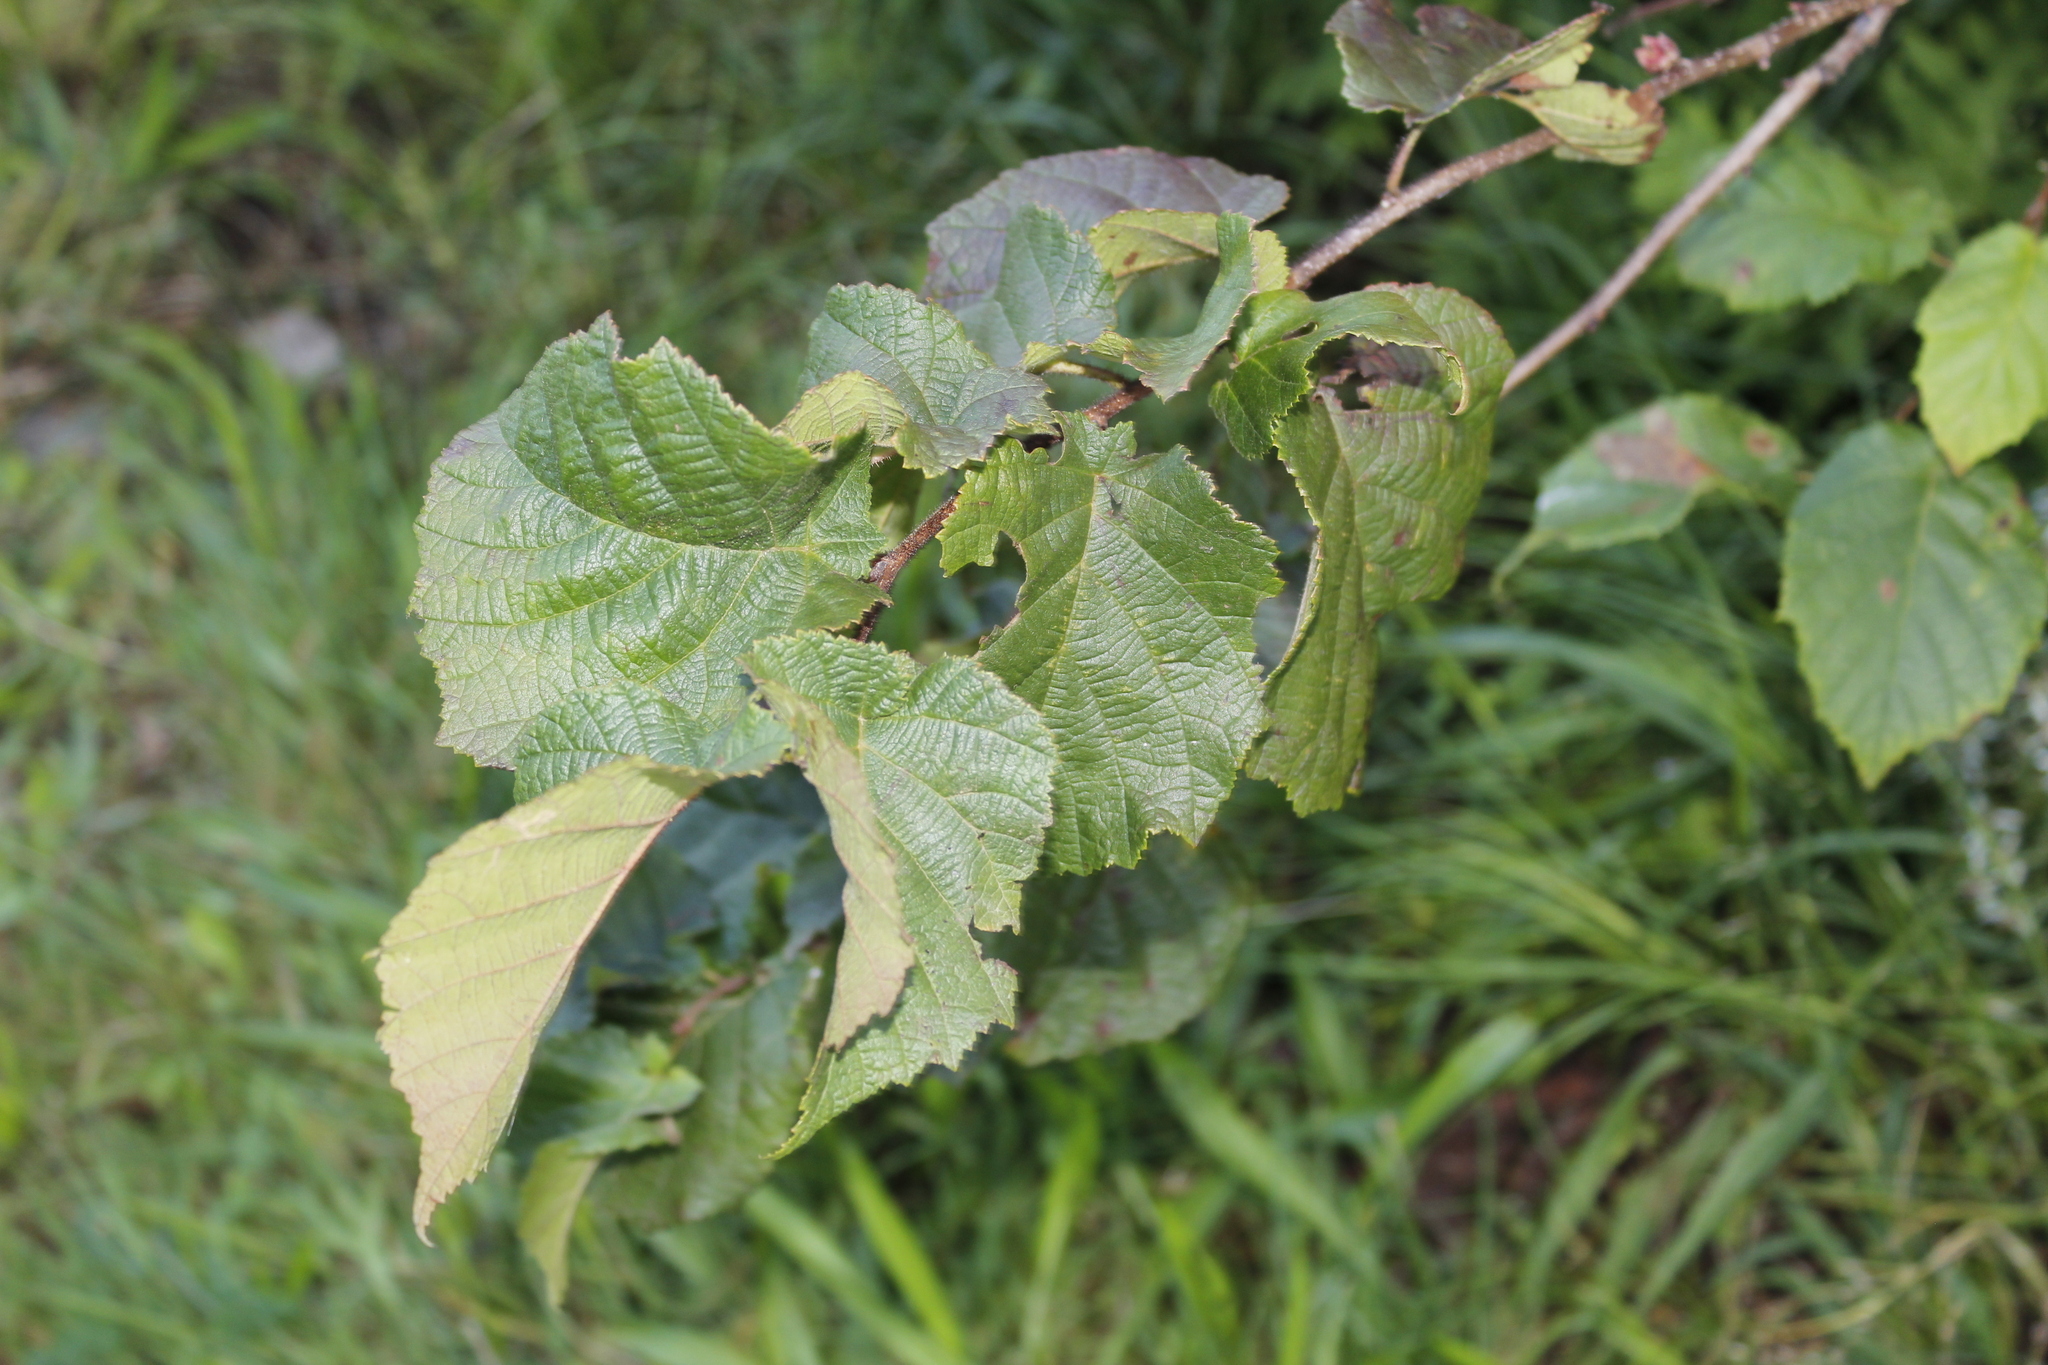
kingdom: Plantae
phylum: Tracheophyta
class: Magnoliopsida
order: Fagales
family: Betulaceae
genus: Corylus
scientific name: Corylus americana
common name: American hazel
